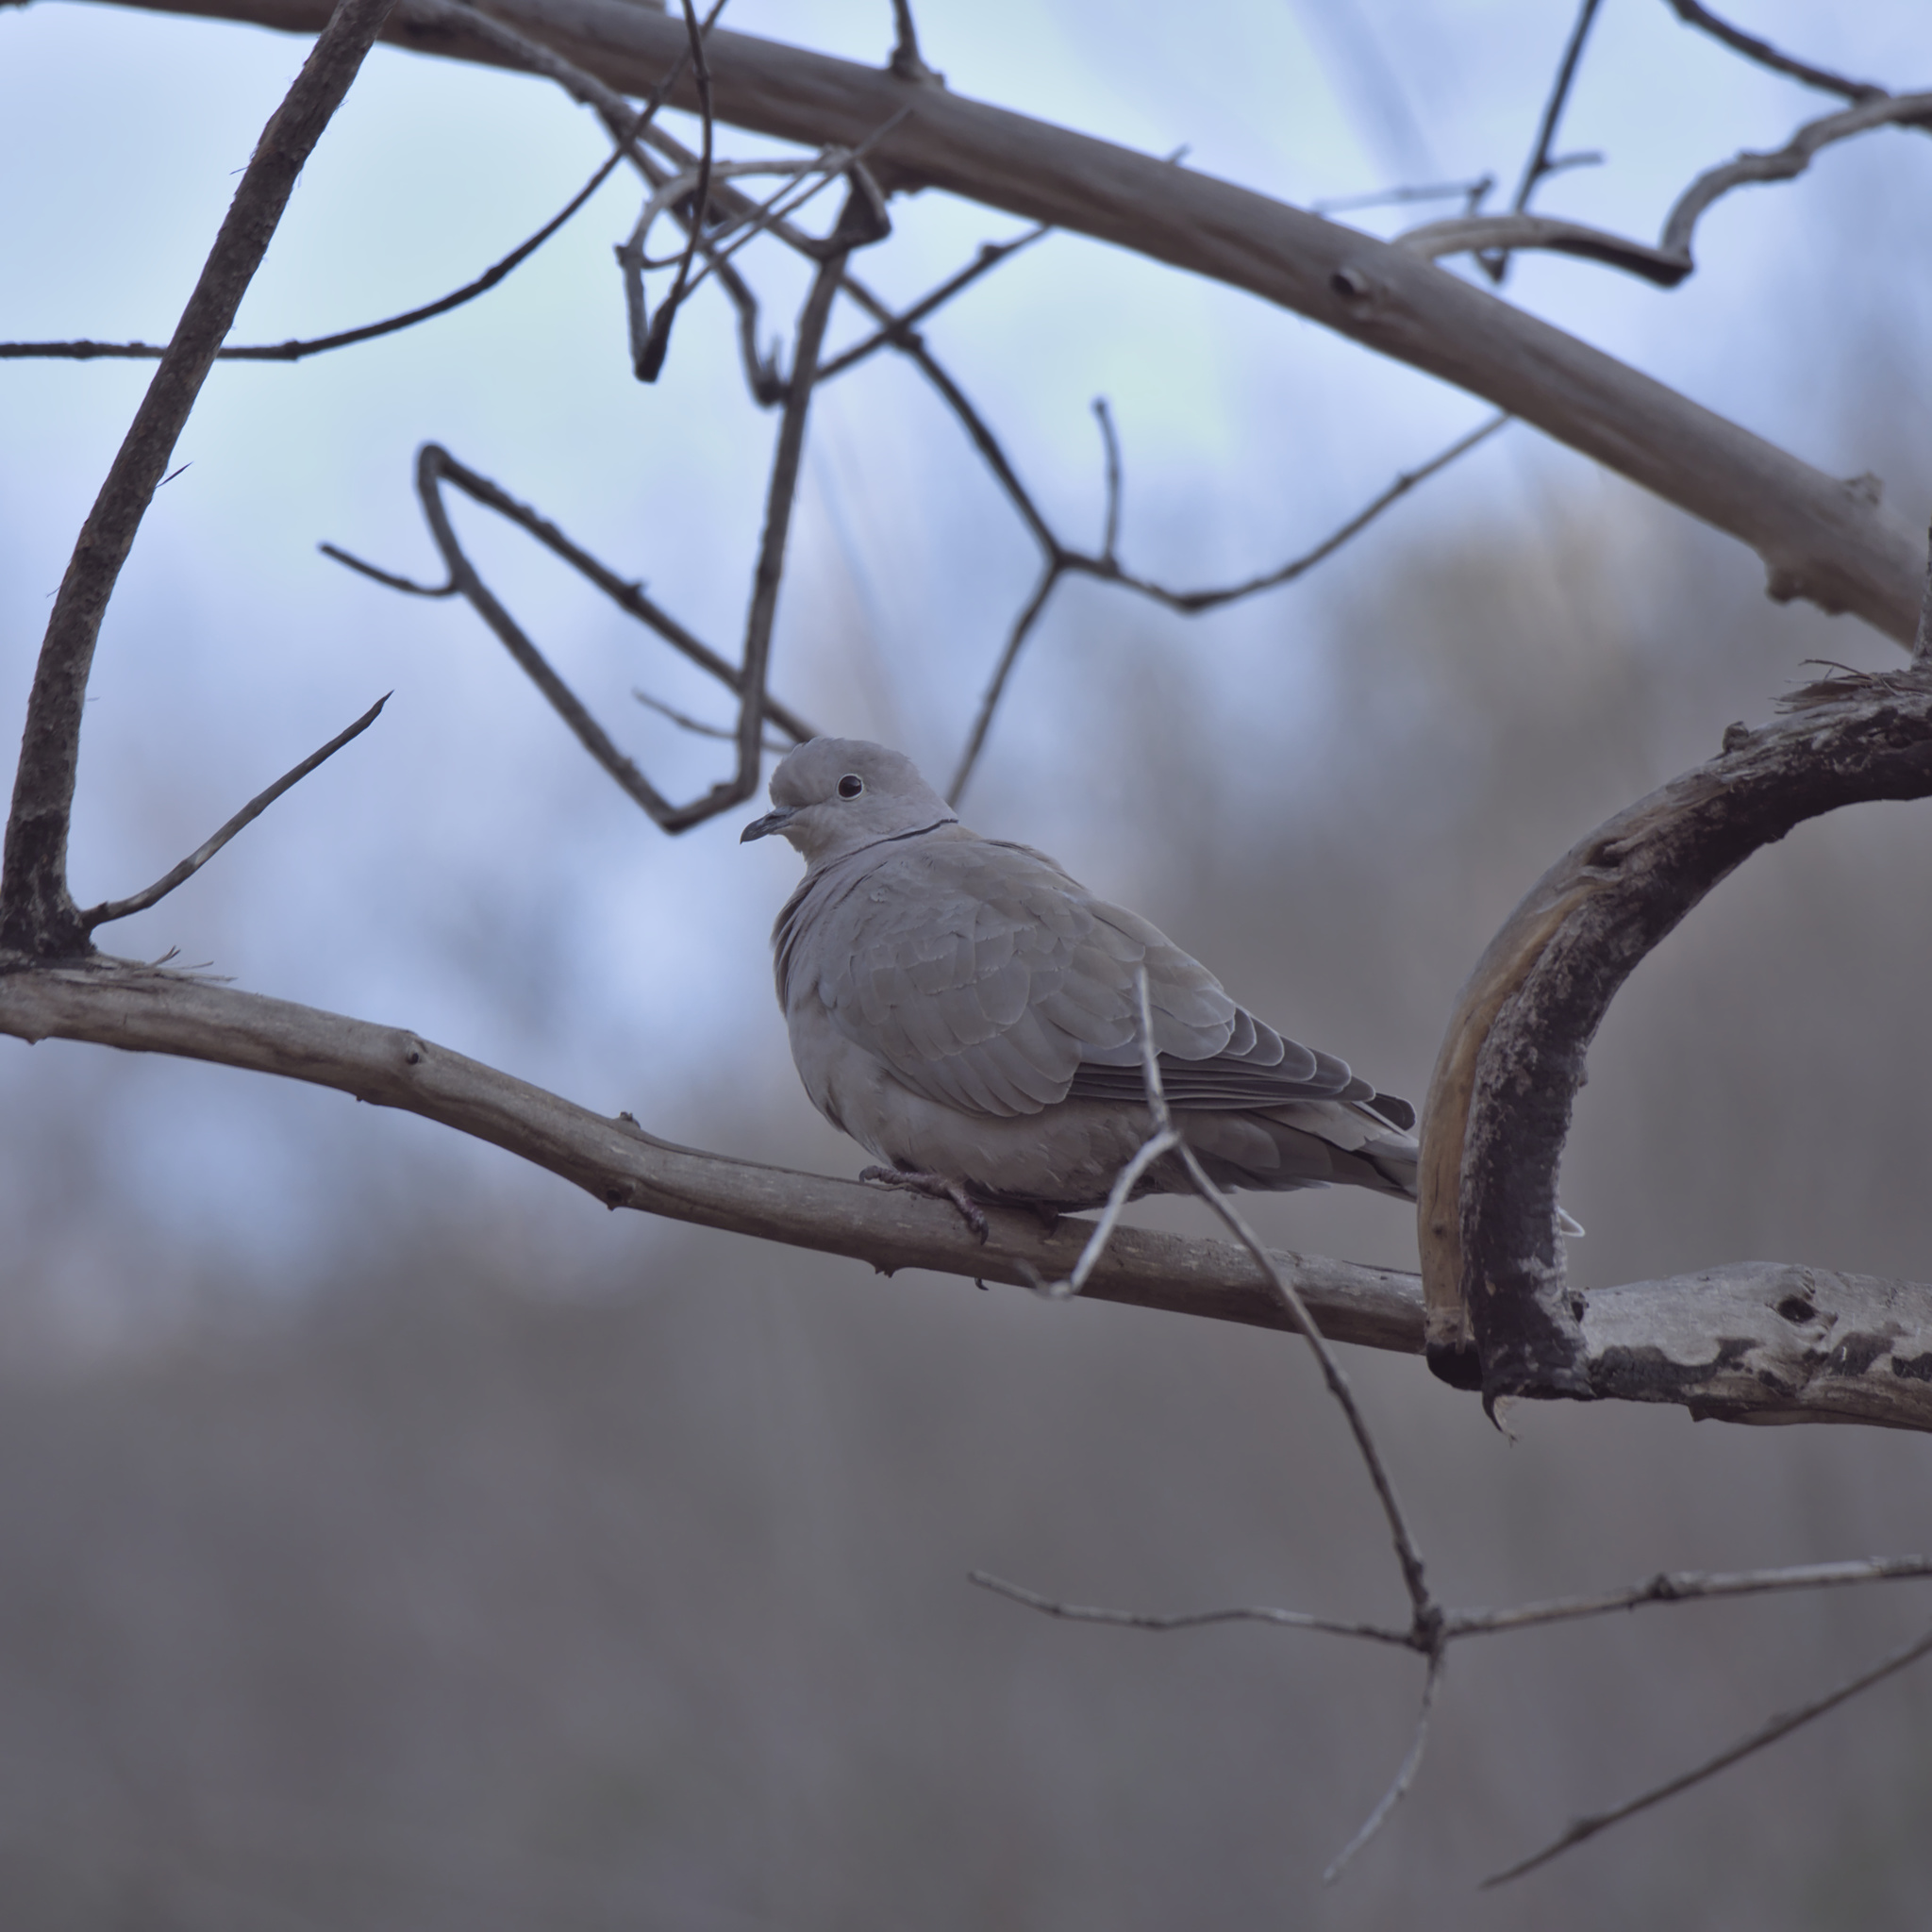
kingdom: Animalia
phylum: Chordata
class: Aves
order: Columbiformes
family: Columbidae
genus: Streptopelia
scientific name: Streptopelia decaocto
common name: Eurasian collared dove
